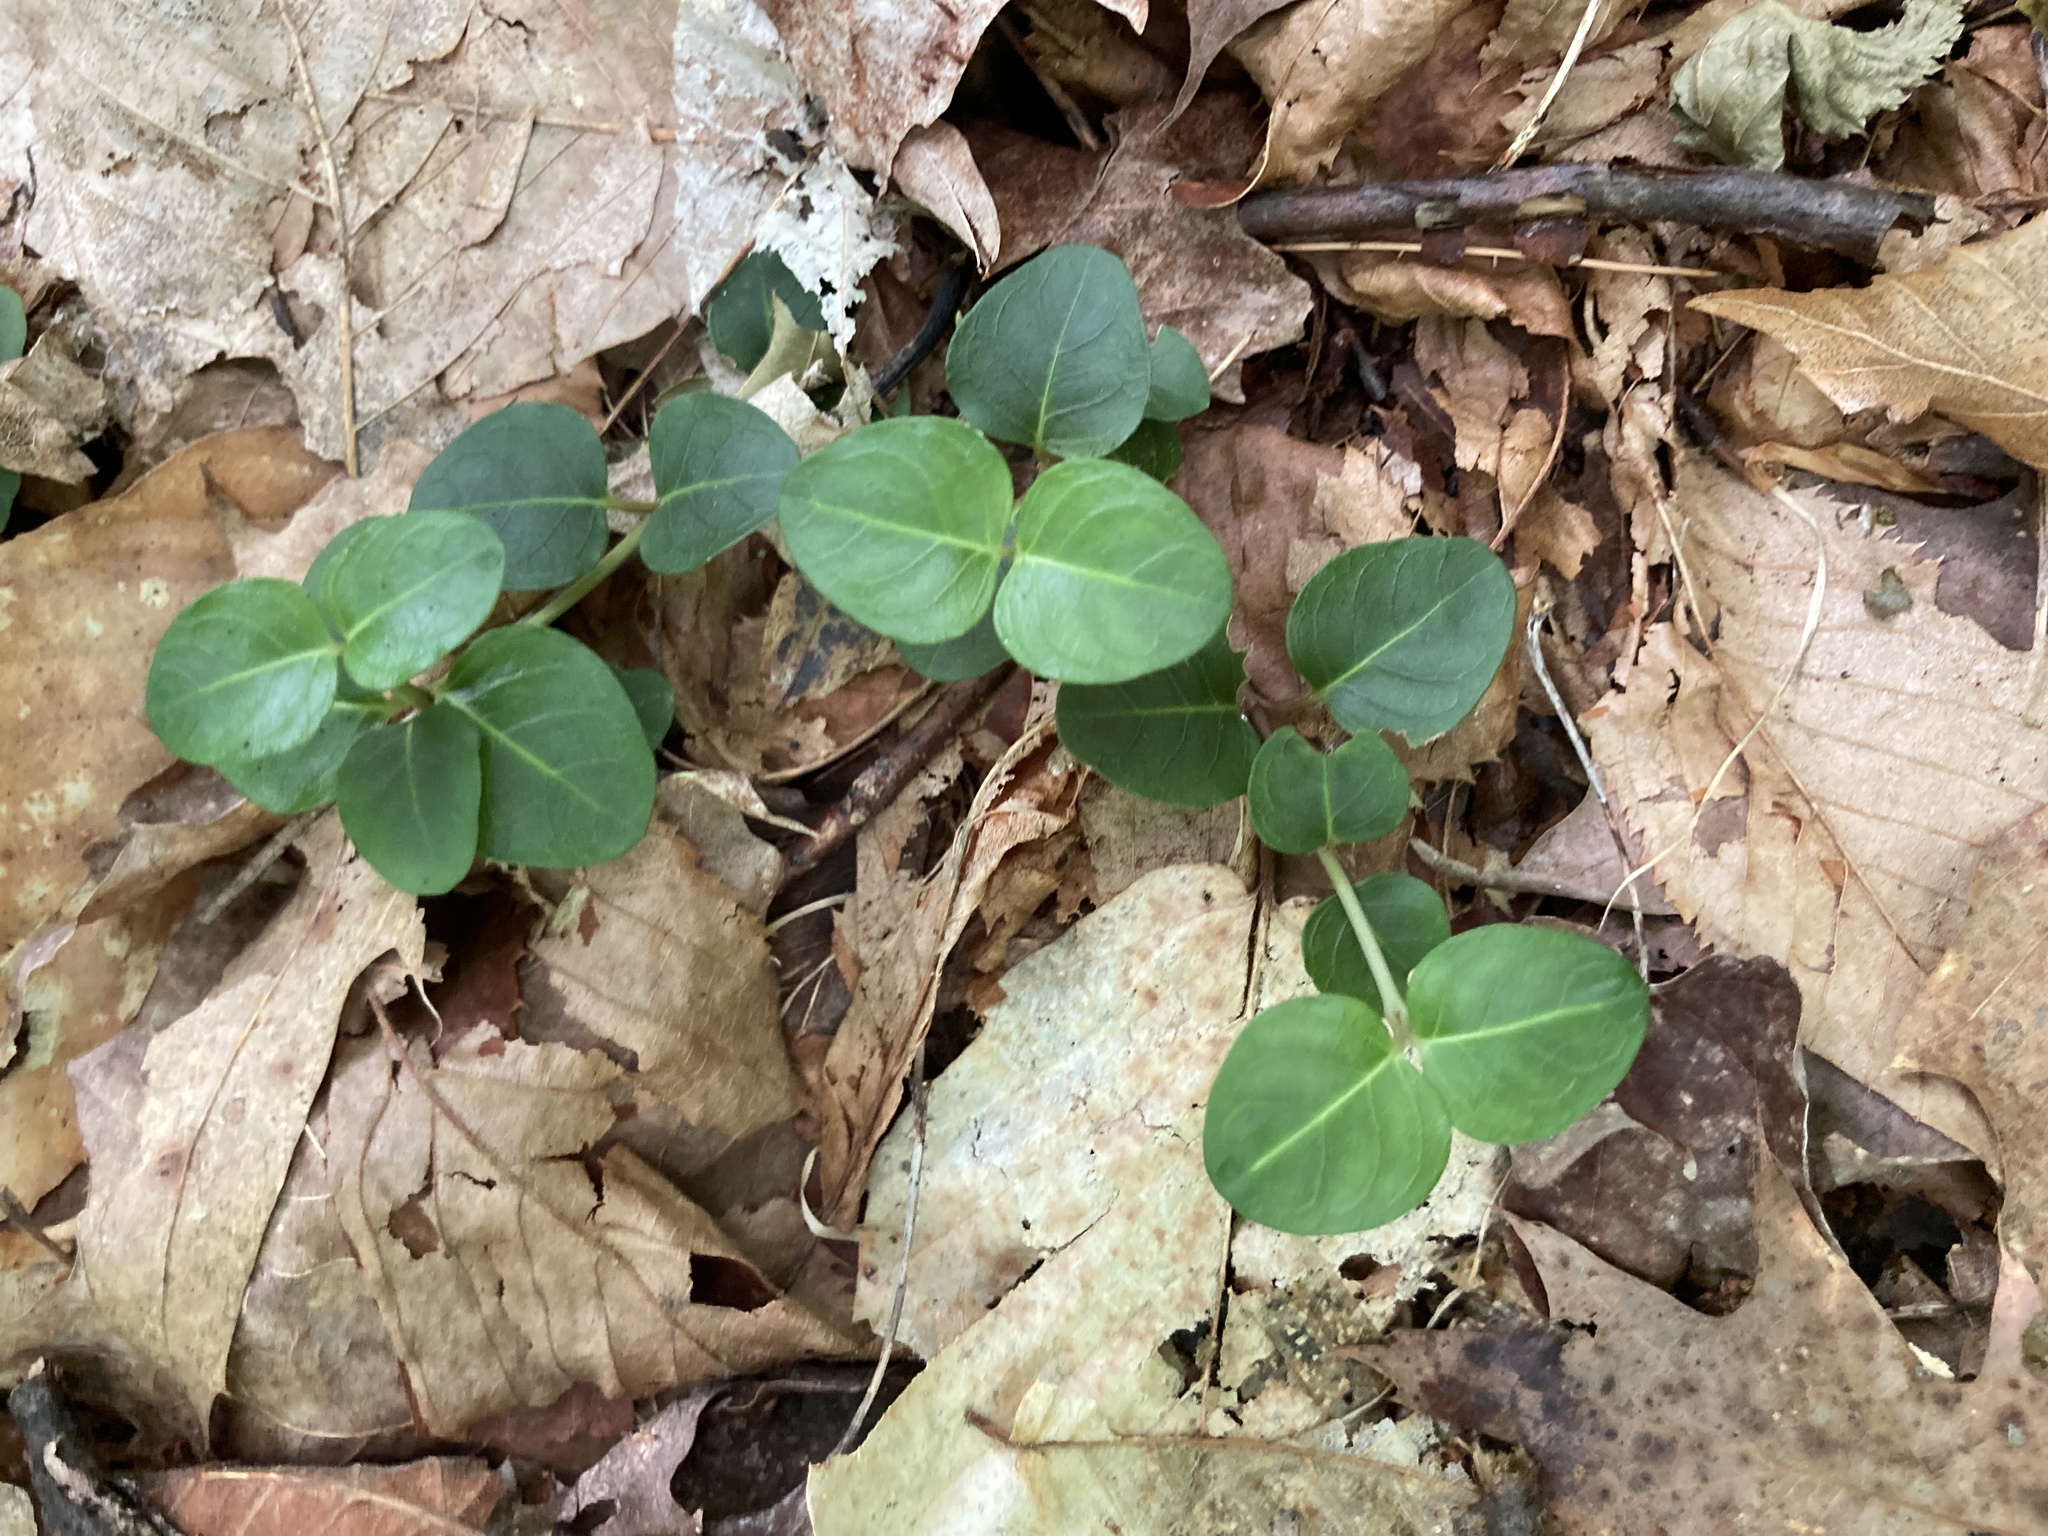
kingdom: Plantae
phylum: Tracheophyta
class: Magnoliopsida
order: Gentianales
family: Rubiaceae
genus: Mitchella
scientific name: Mitchella repens
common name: Partridge-berry
